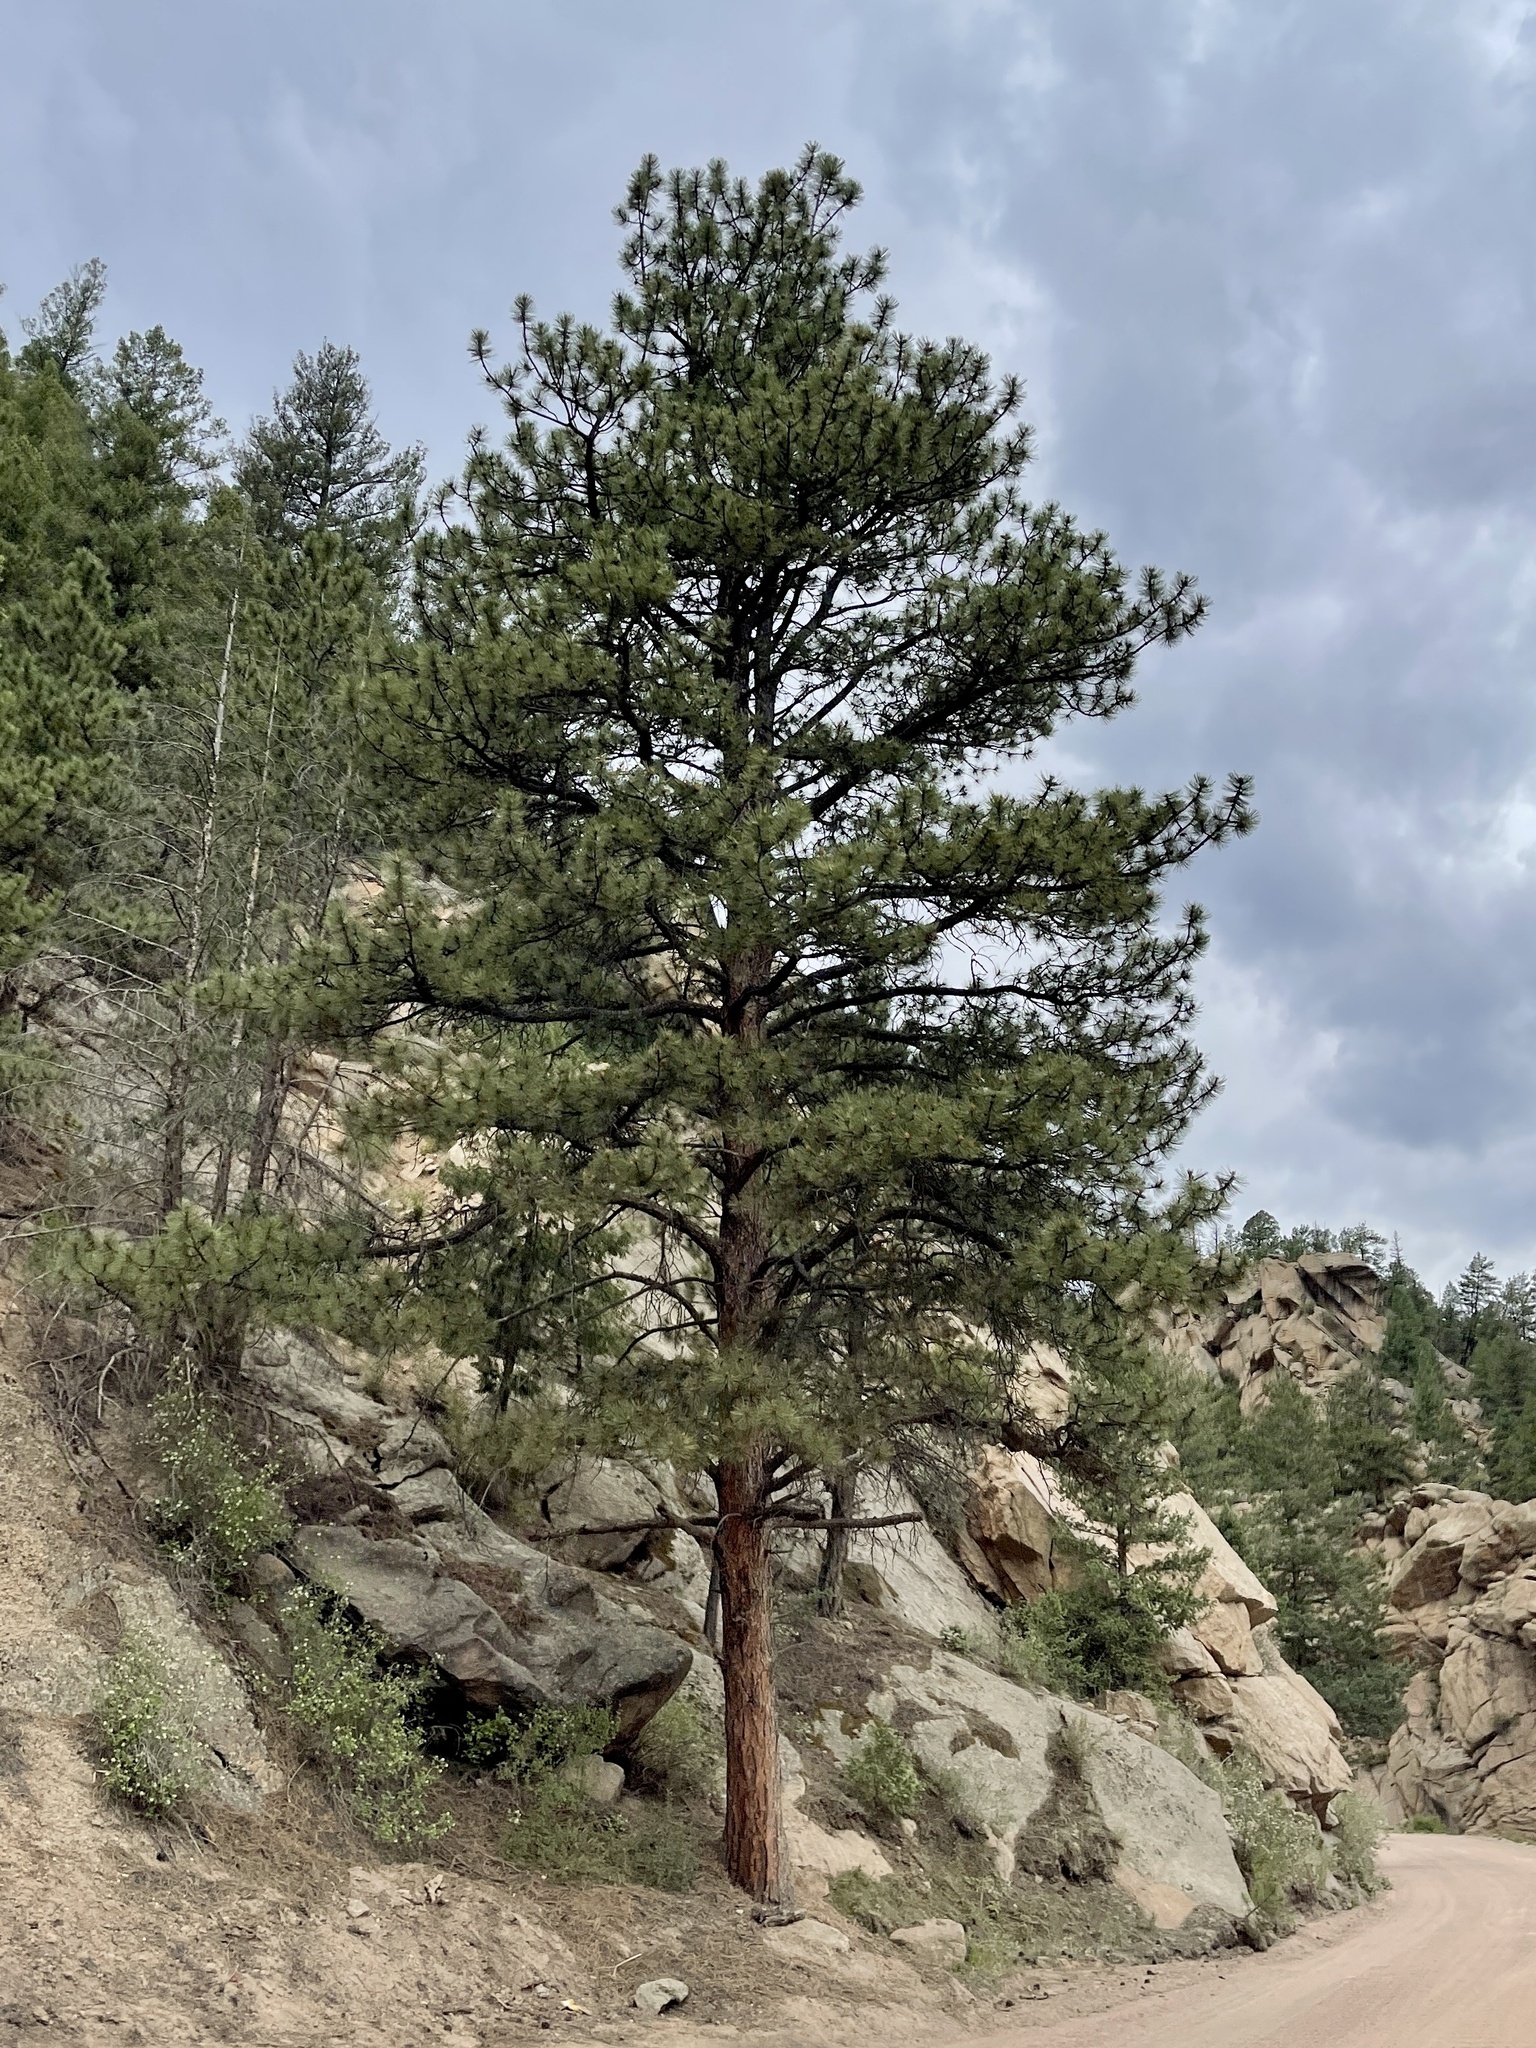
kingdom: Plantae
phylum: Tracheophyta
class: Pinopsida
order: Pinales
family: Pinaceae
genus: Pinus
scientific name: Pinus ponderosa
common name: Western yellow-pine
